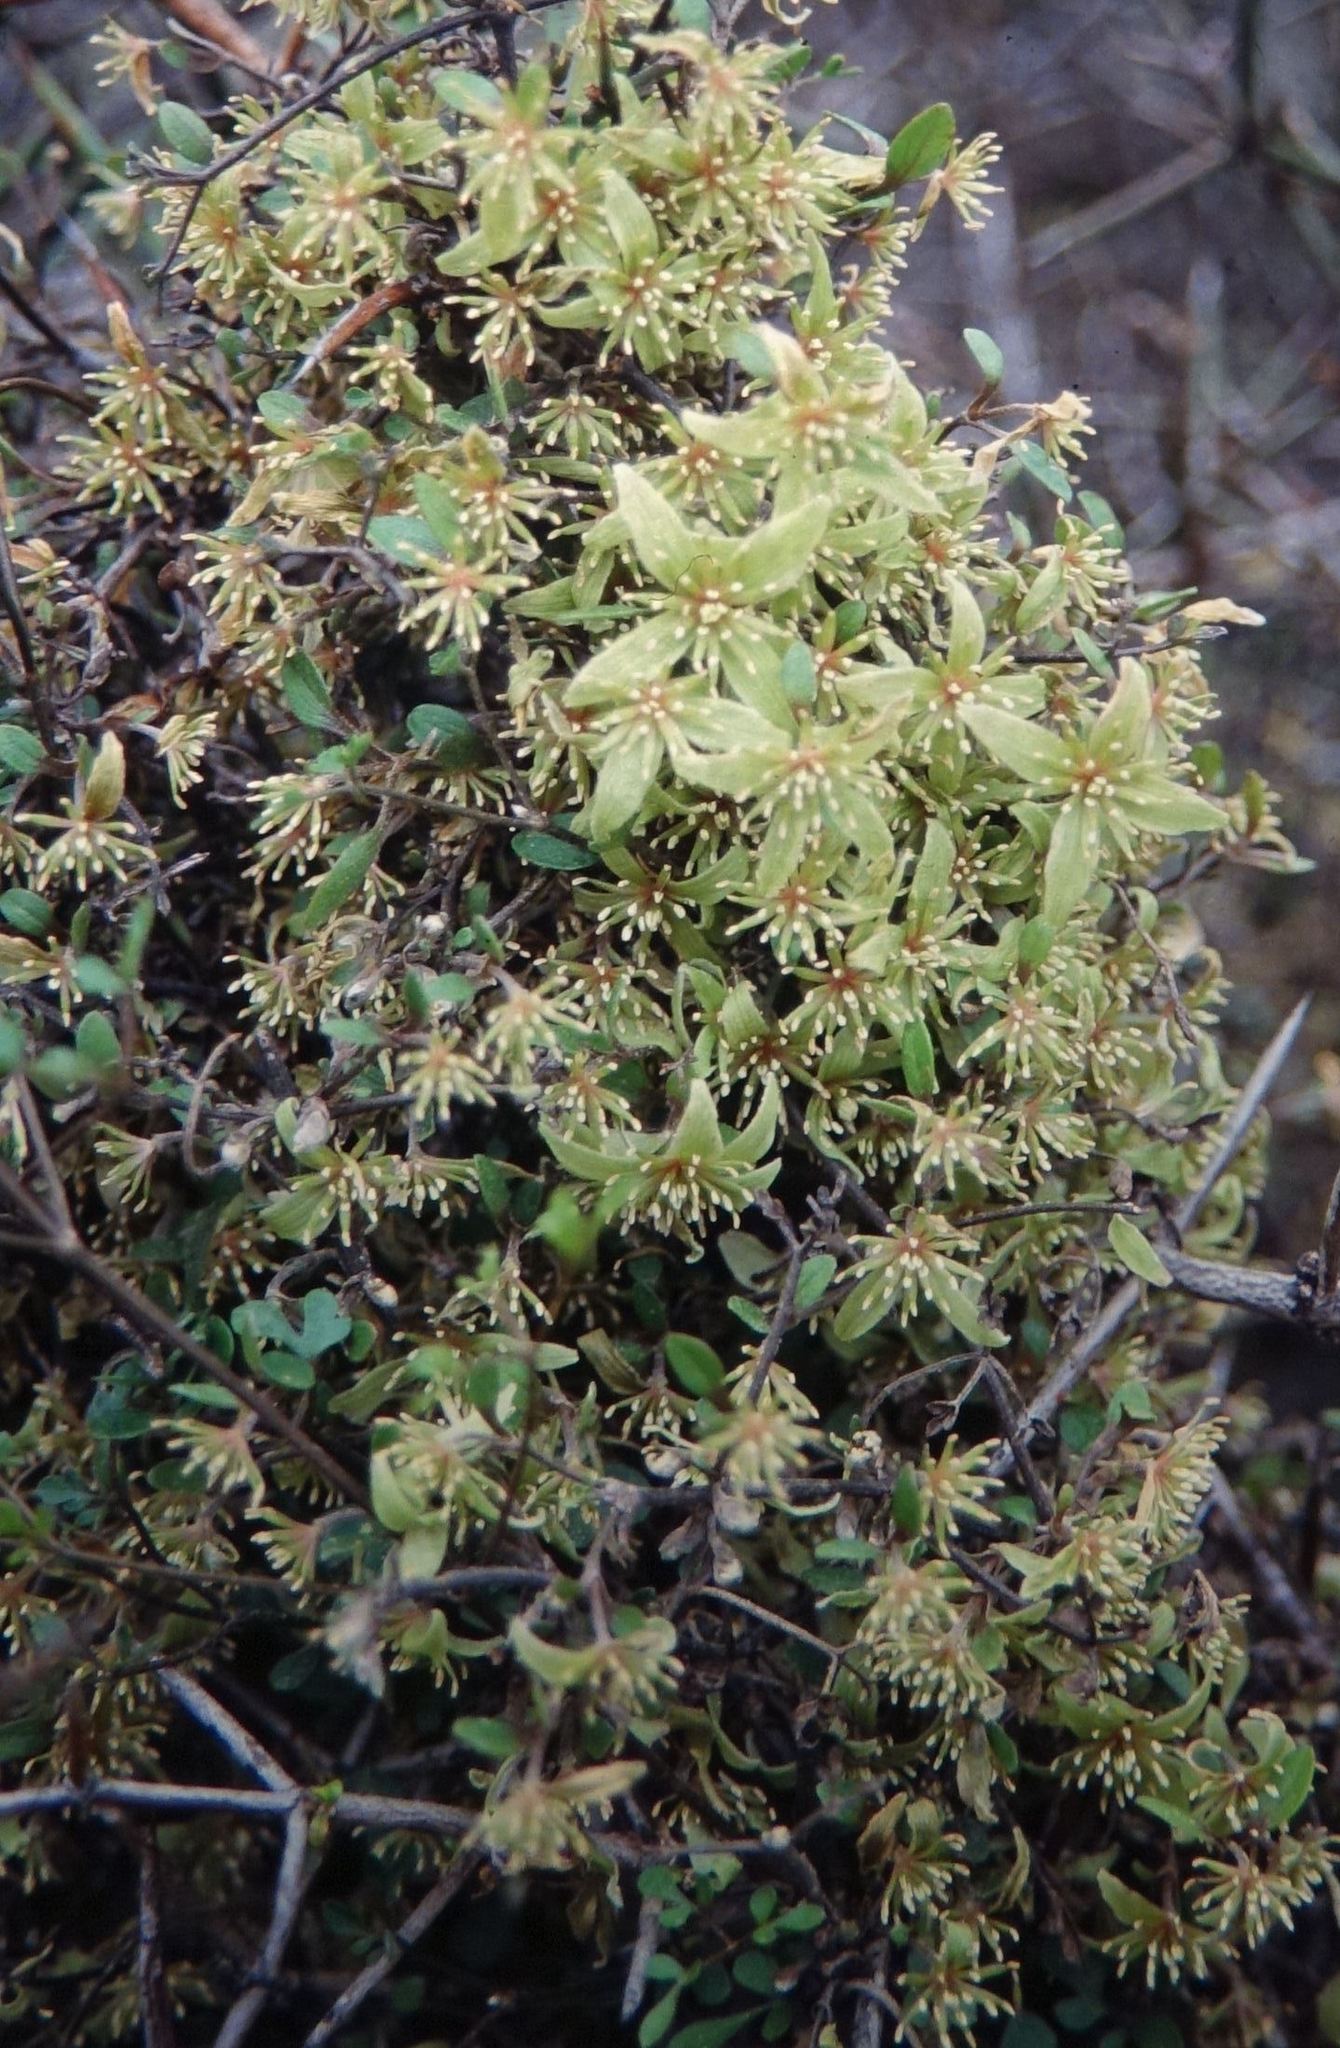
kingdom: Plantae
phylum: Tracheophyta
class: Magnoliopsida
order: Ranunculales
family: Ranunculaceae
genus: Clematis
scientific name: Clematis marata
